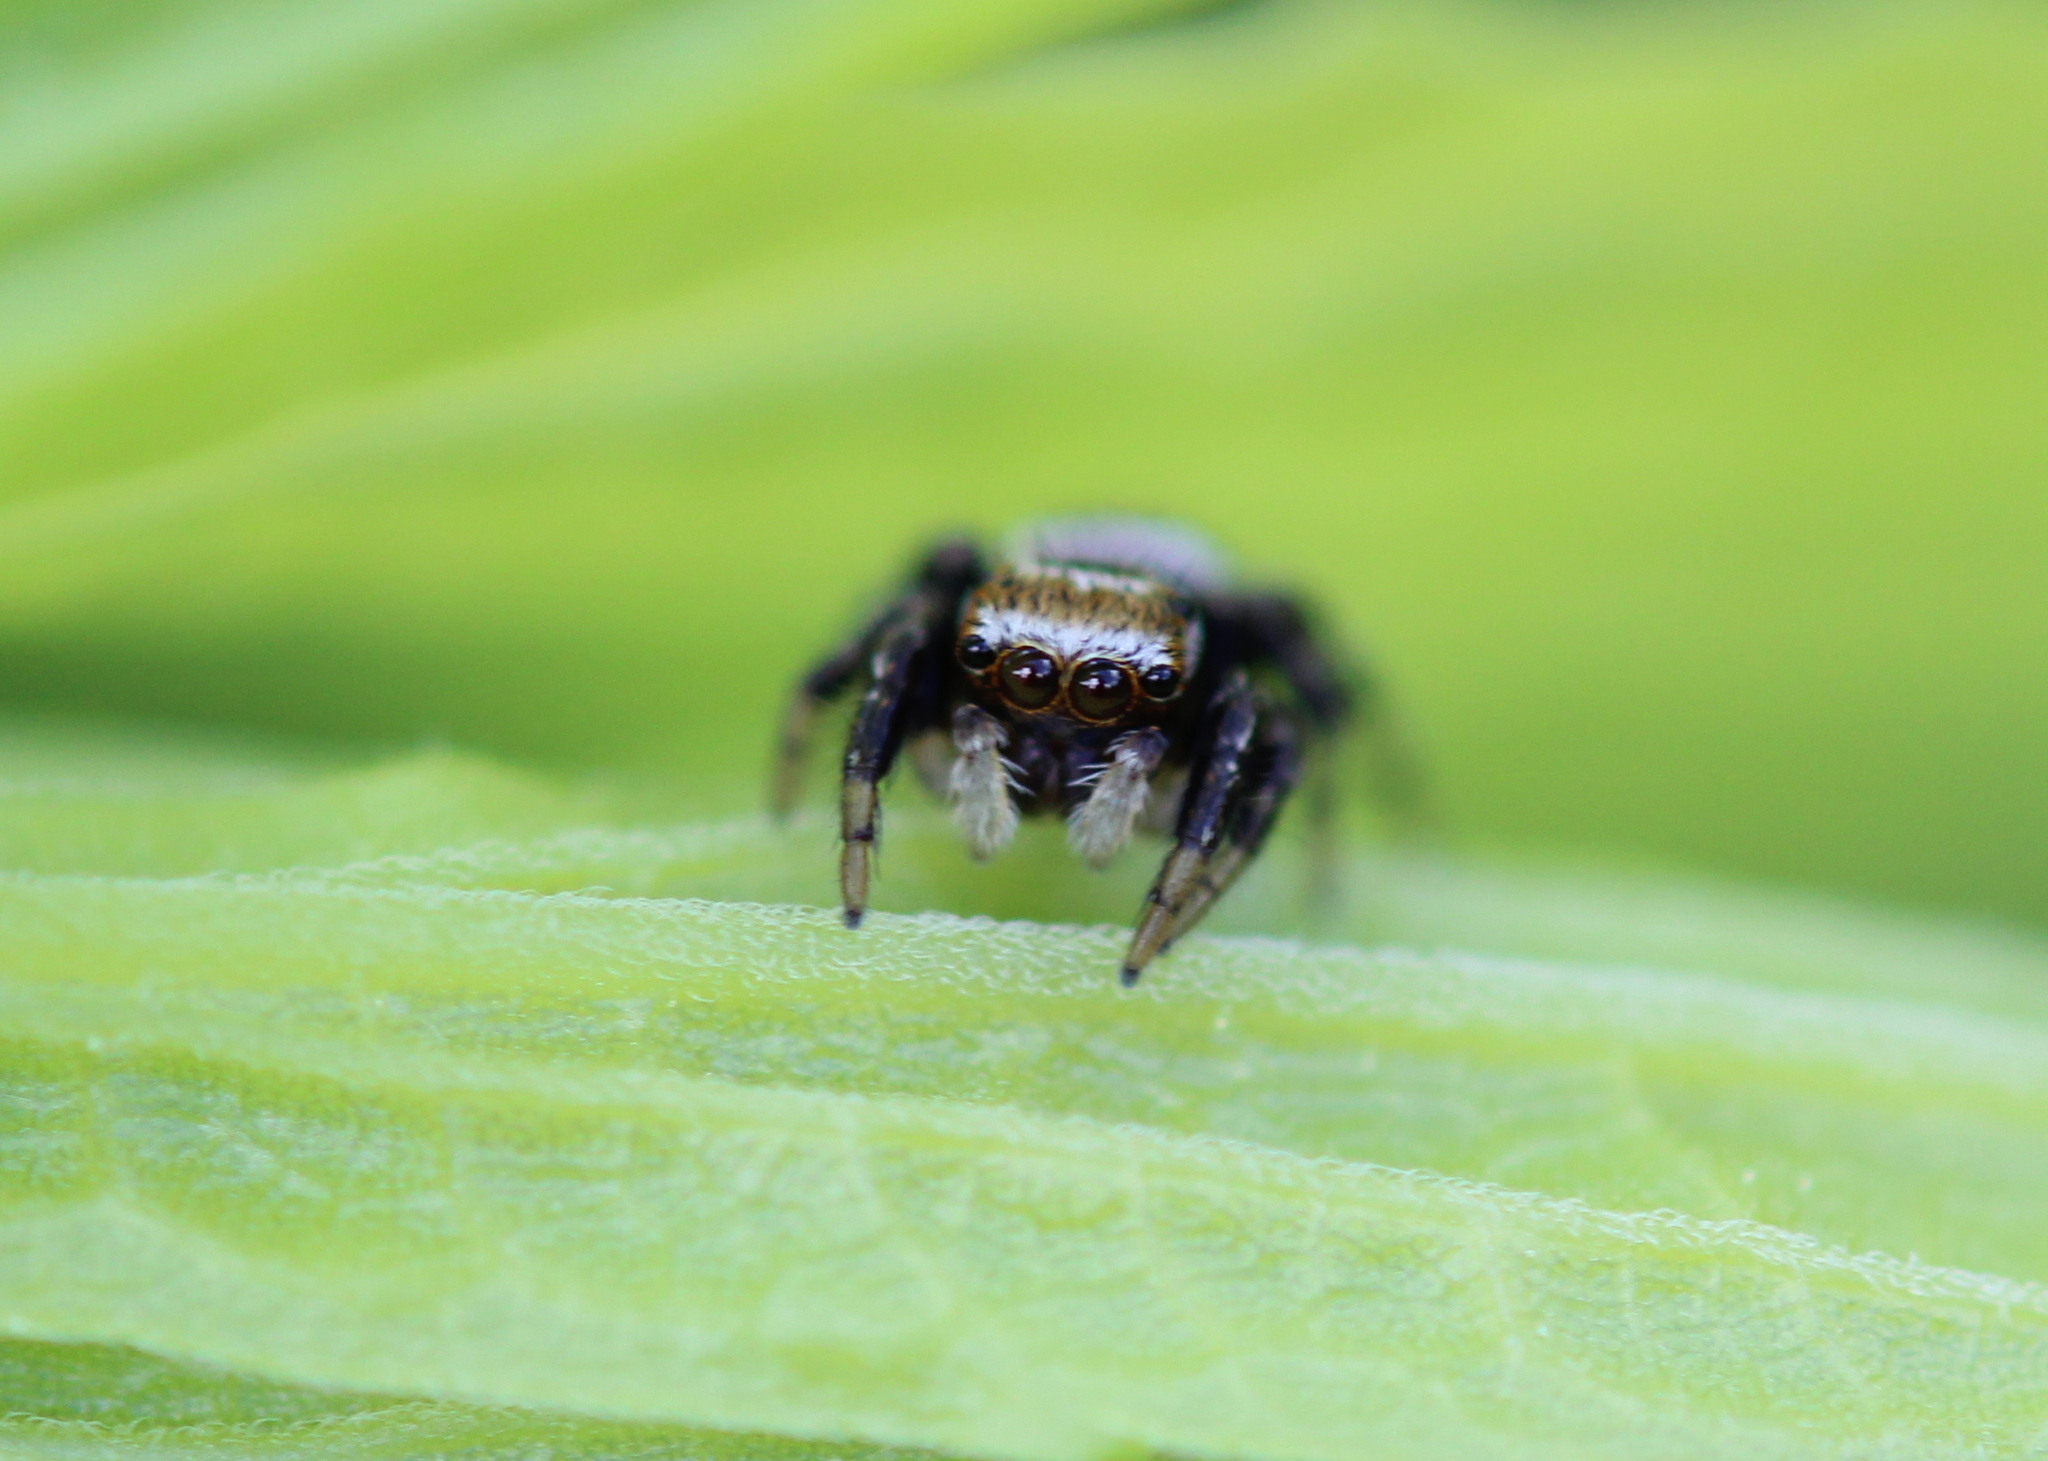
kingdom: Animalia
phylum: Arthropoda
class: Arachnida
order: Araneae
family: Salticidae
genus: Evarcha
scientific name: Evarcha hoyi
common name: Hoy's jumping spider
